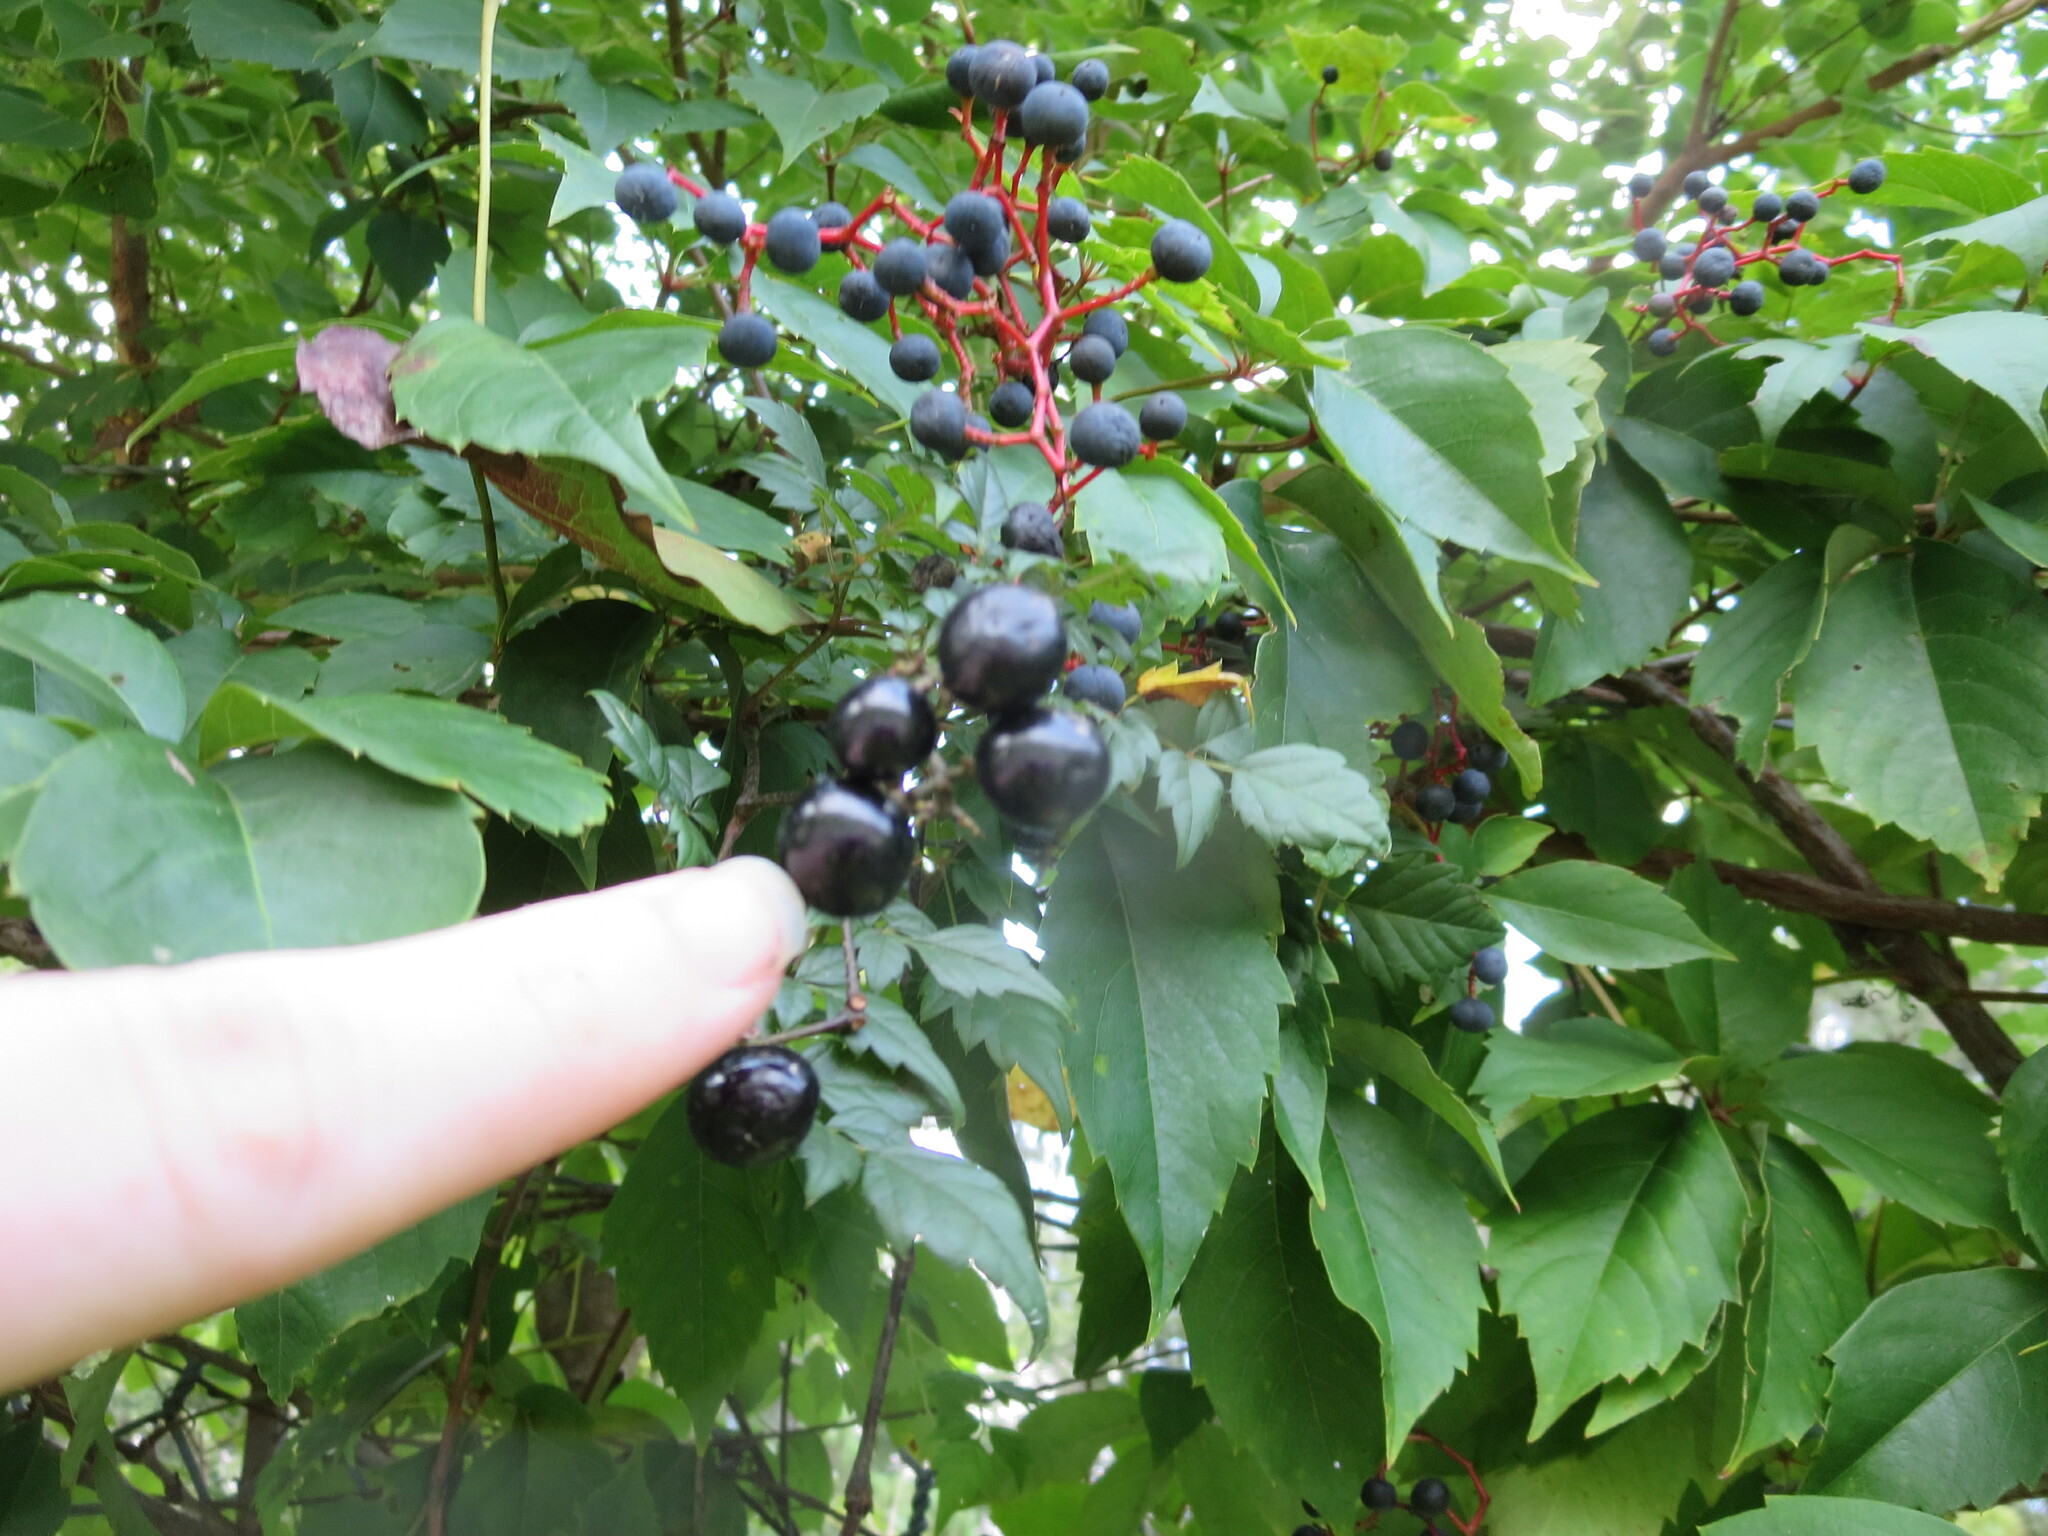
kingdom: Plantae
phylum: Tracheophyta
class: Magnoliopsida
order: Vitales
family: Vitaceae
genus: Nekemias
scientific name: Nekemias arborea
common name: Peppervine
